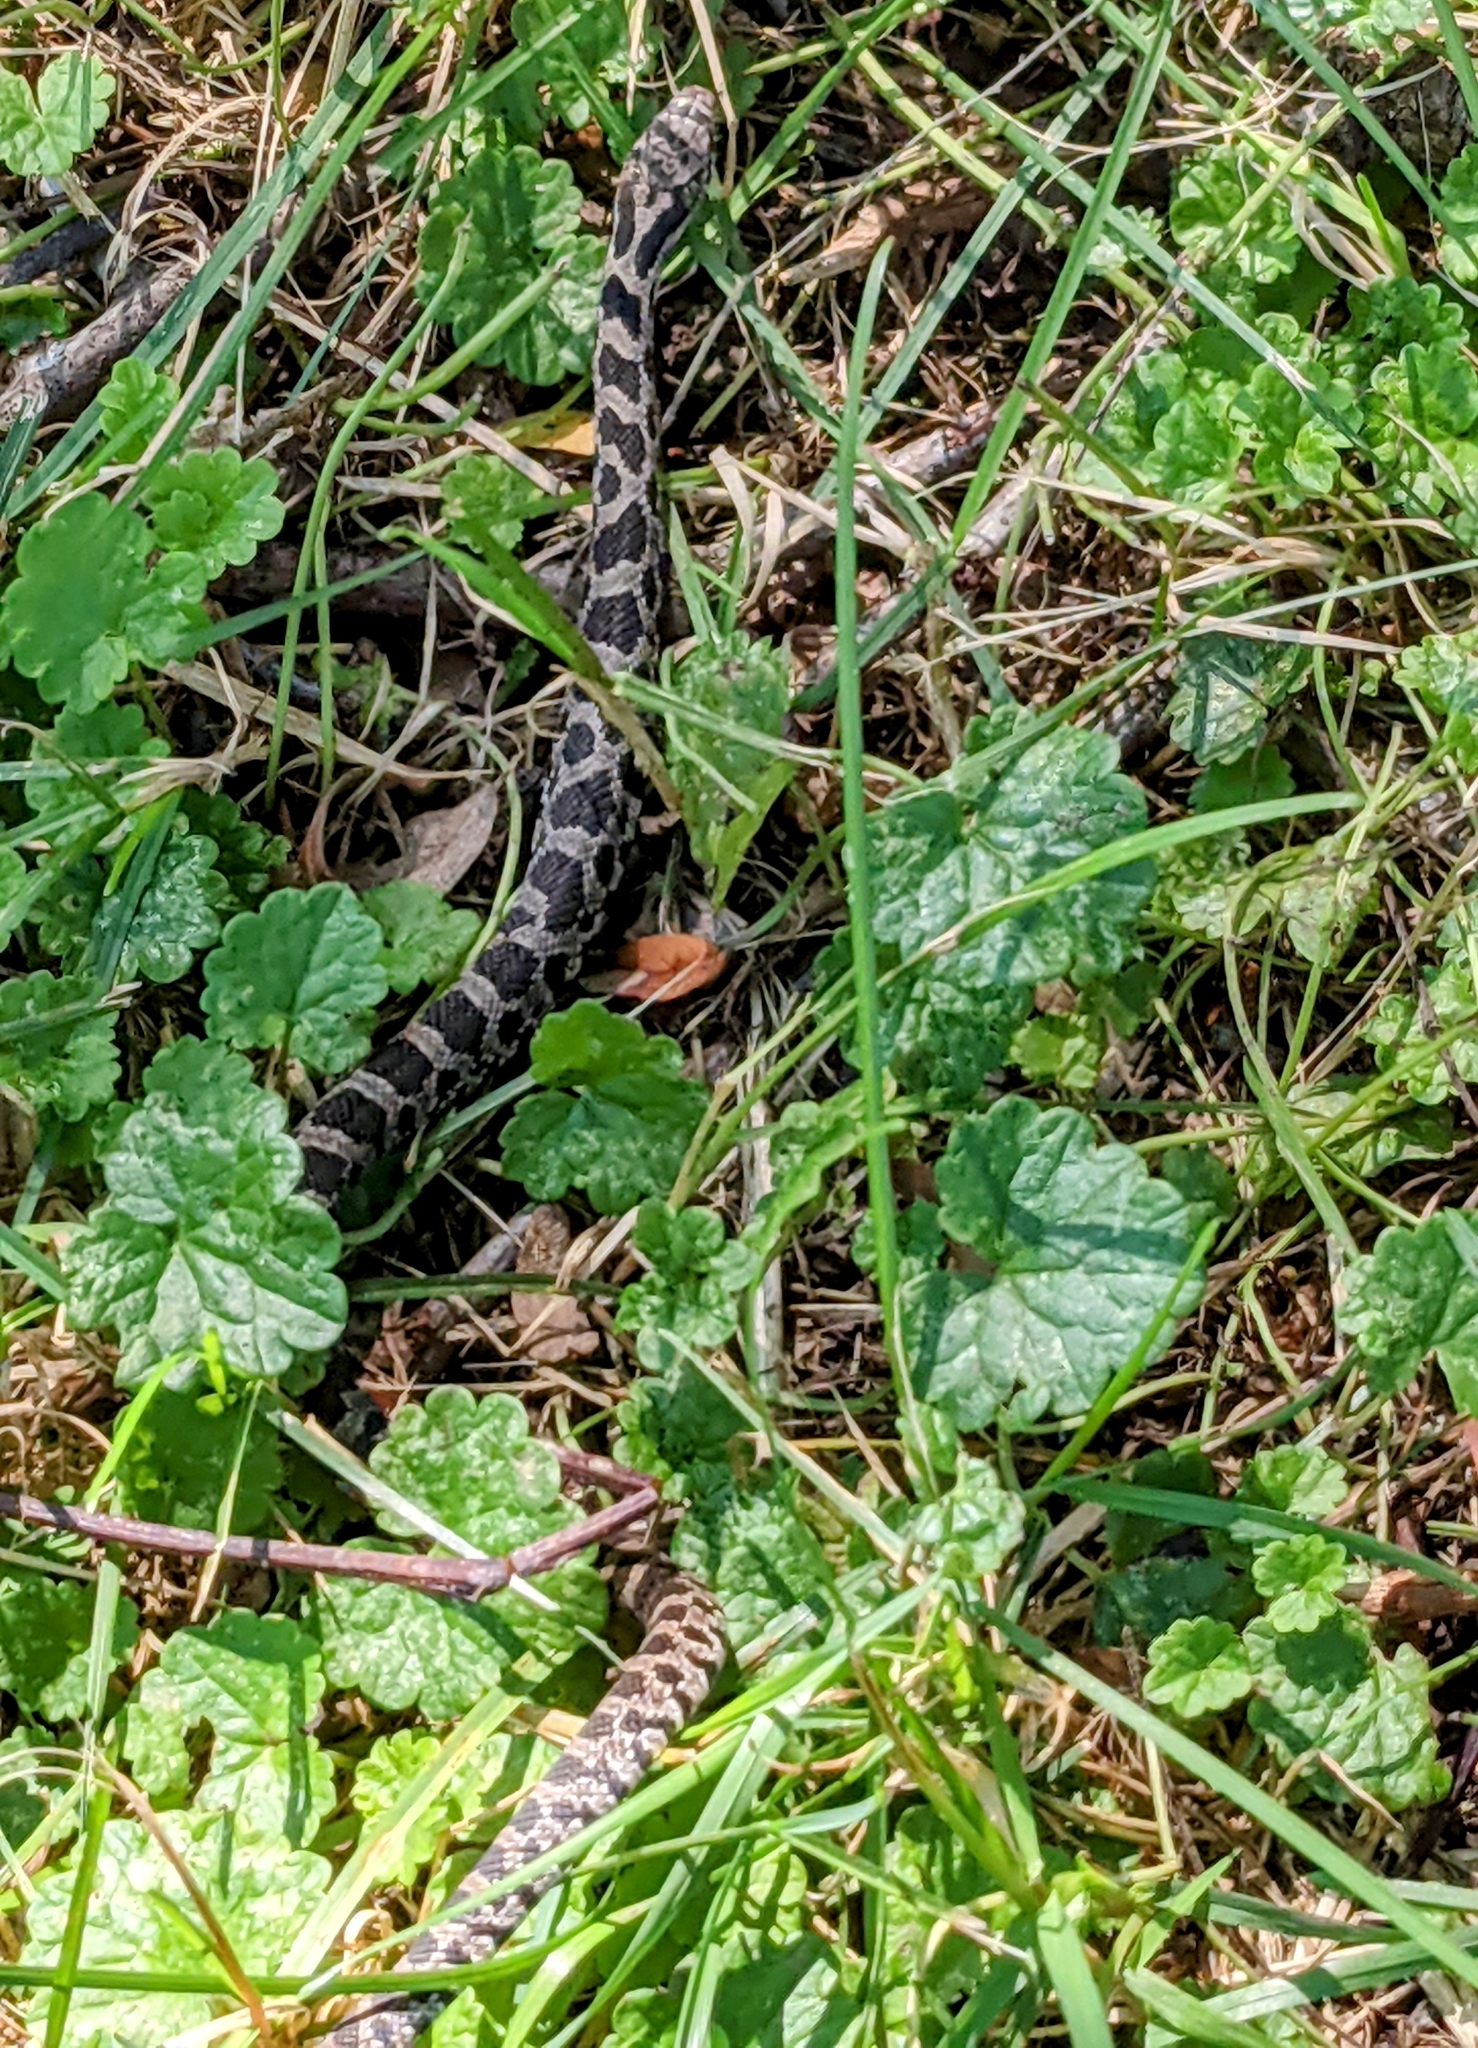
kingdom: Animalia
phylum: Chordata
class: Squamata
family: Colubridae
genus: Pantherophis
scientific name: Pantherophis ramspotti
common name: Western foxsnake
